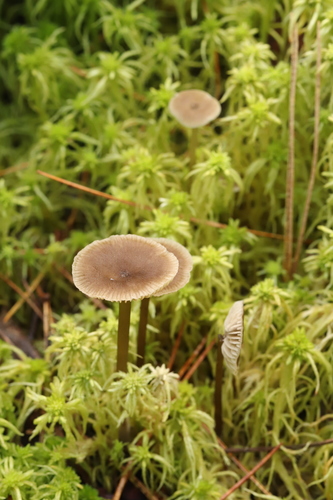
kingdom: Fungi
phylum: Basidiomycota
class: Agaricomycetes
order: Agaricales
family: Lyophyllaceae
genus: Sphagnurus
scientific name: Sphagnurus paluster
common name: Sphagnum greyling
